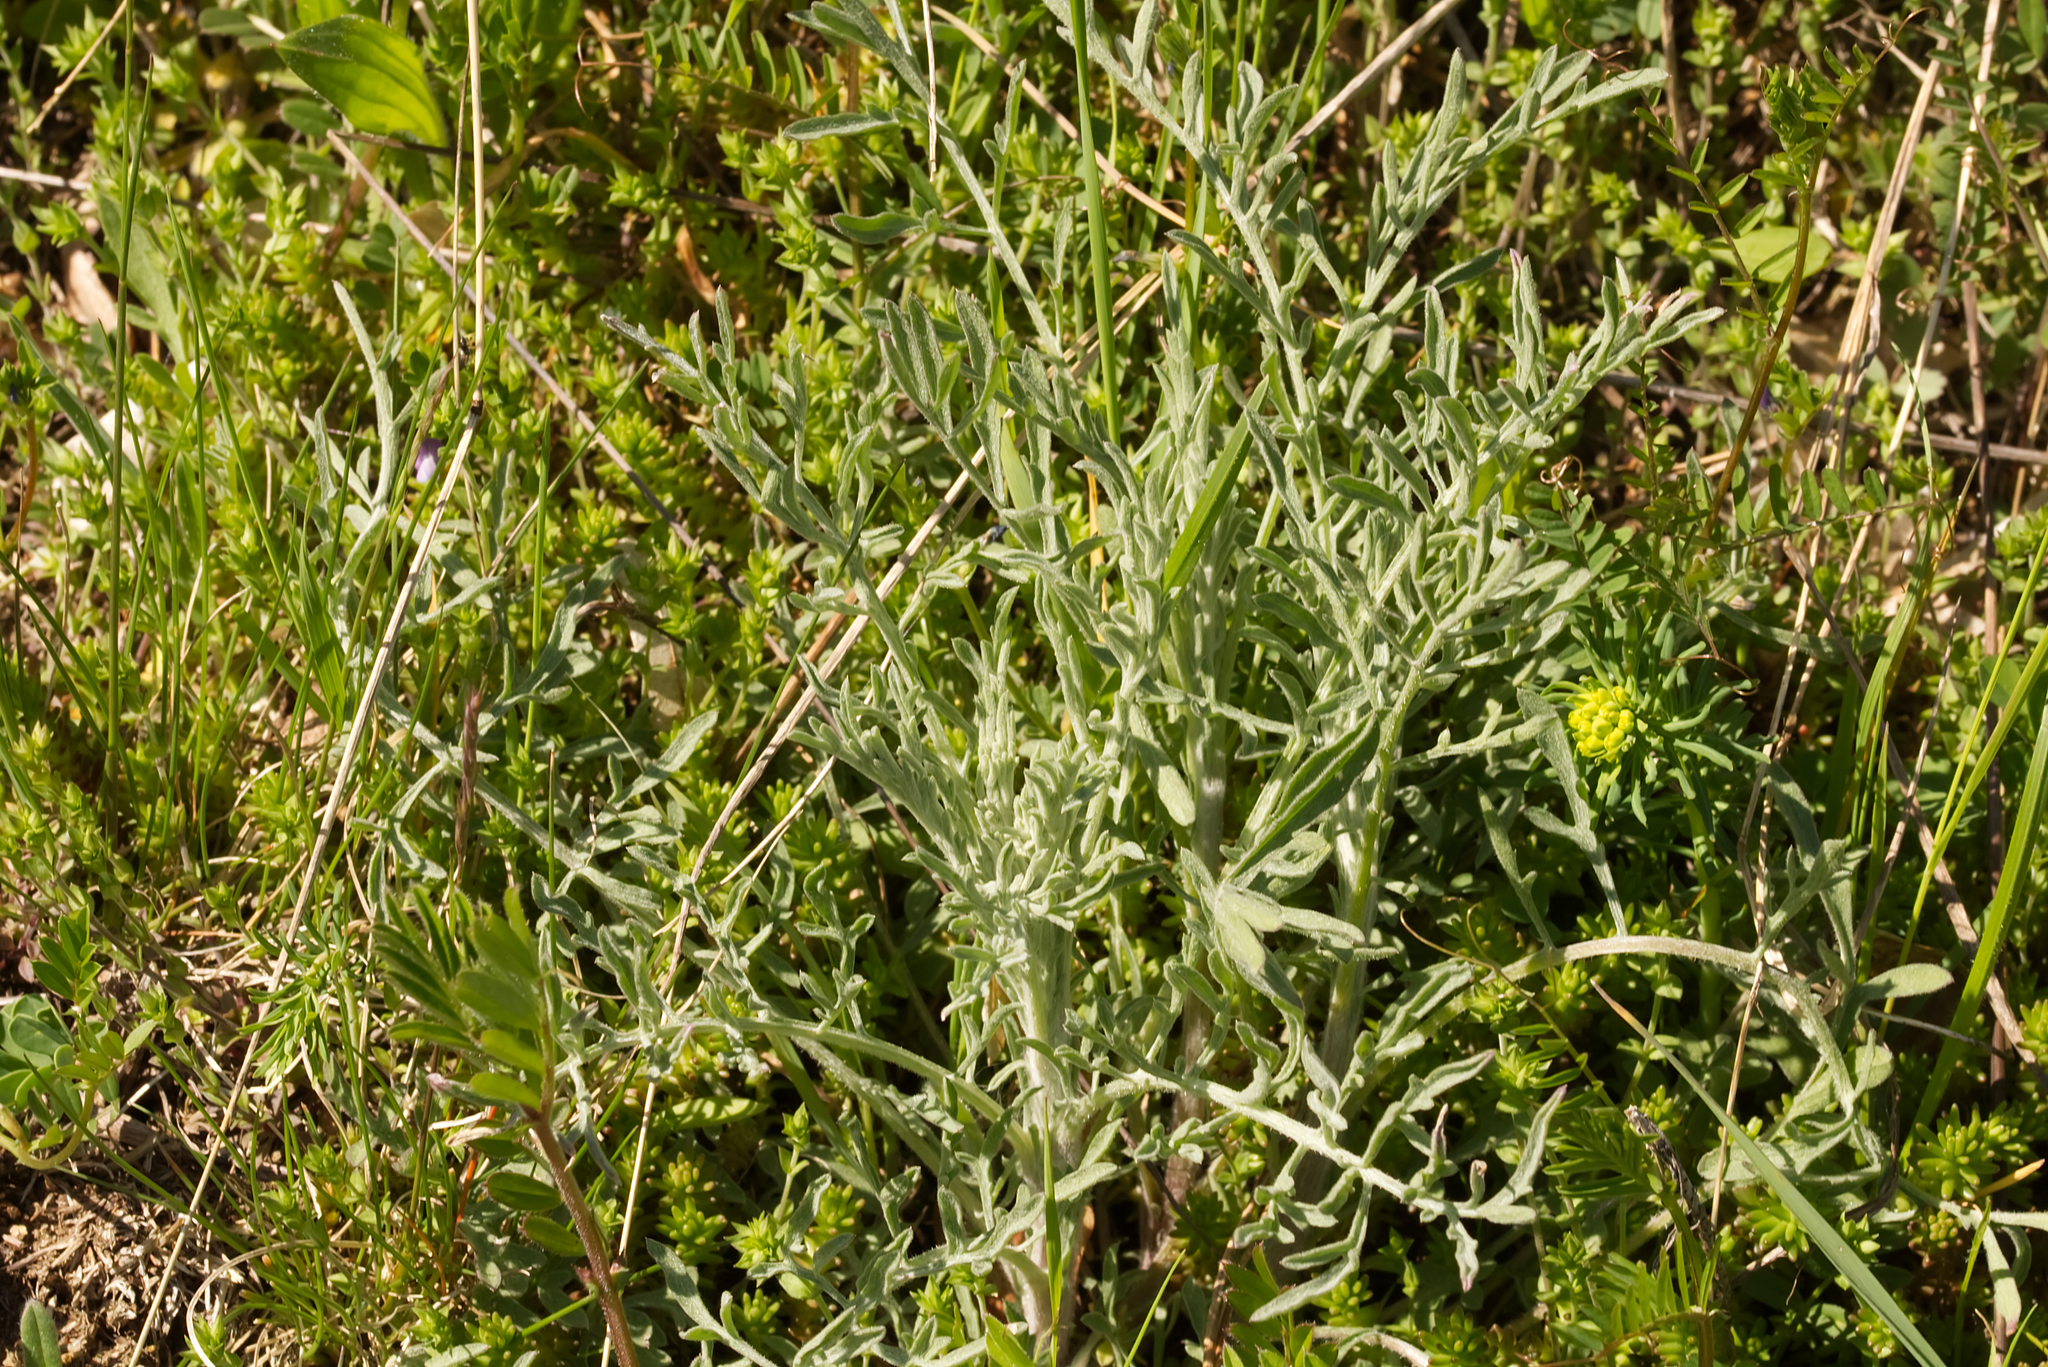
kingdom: Plantae
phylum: Tracheophyta
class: Magnoliopsida
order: Asterales
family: Asteraceae
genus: Centaurea
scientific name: Centaurea stoebe
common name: Spotted knapweed
